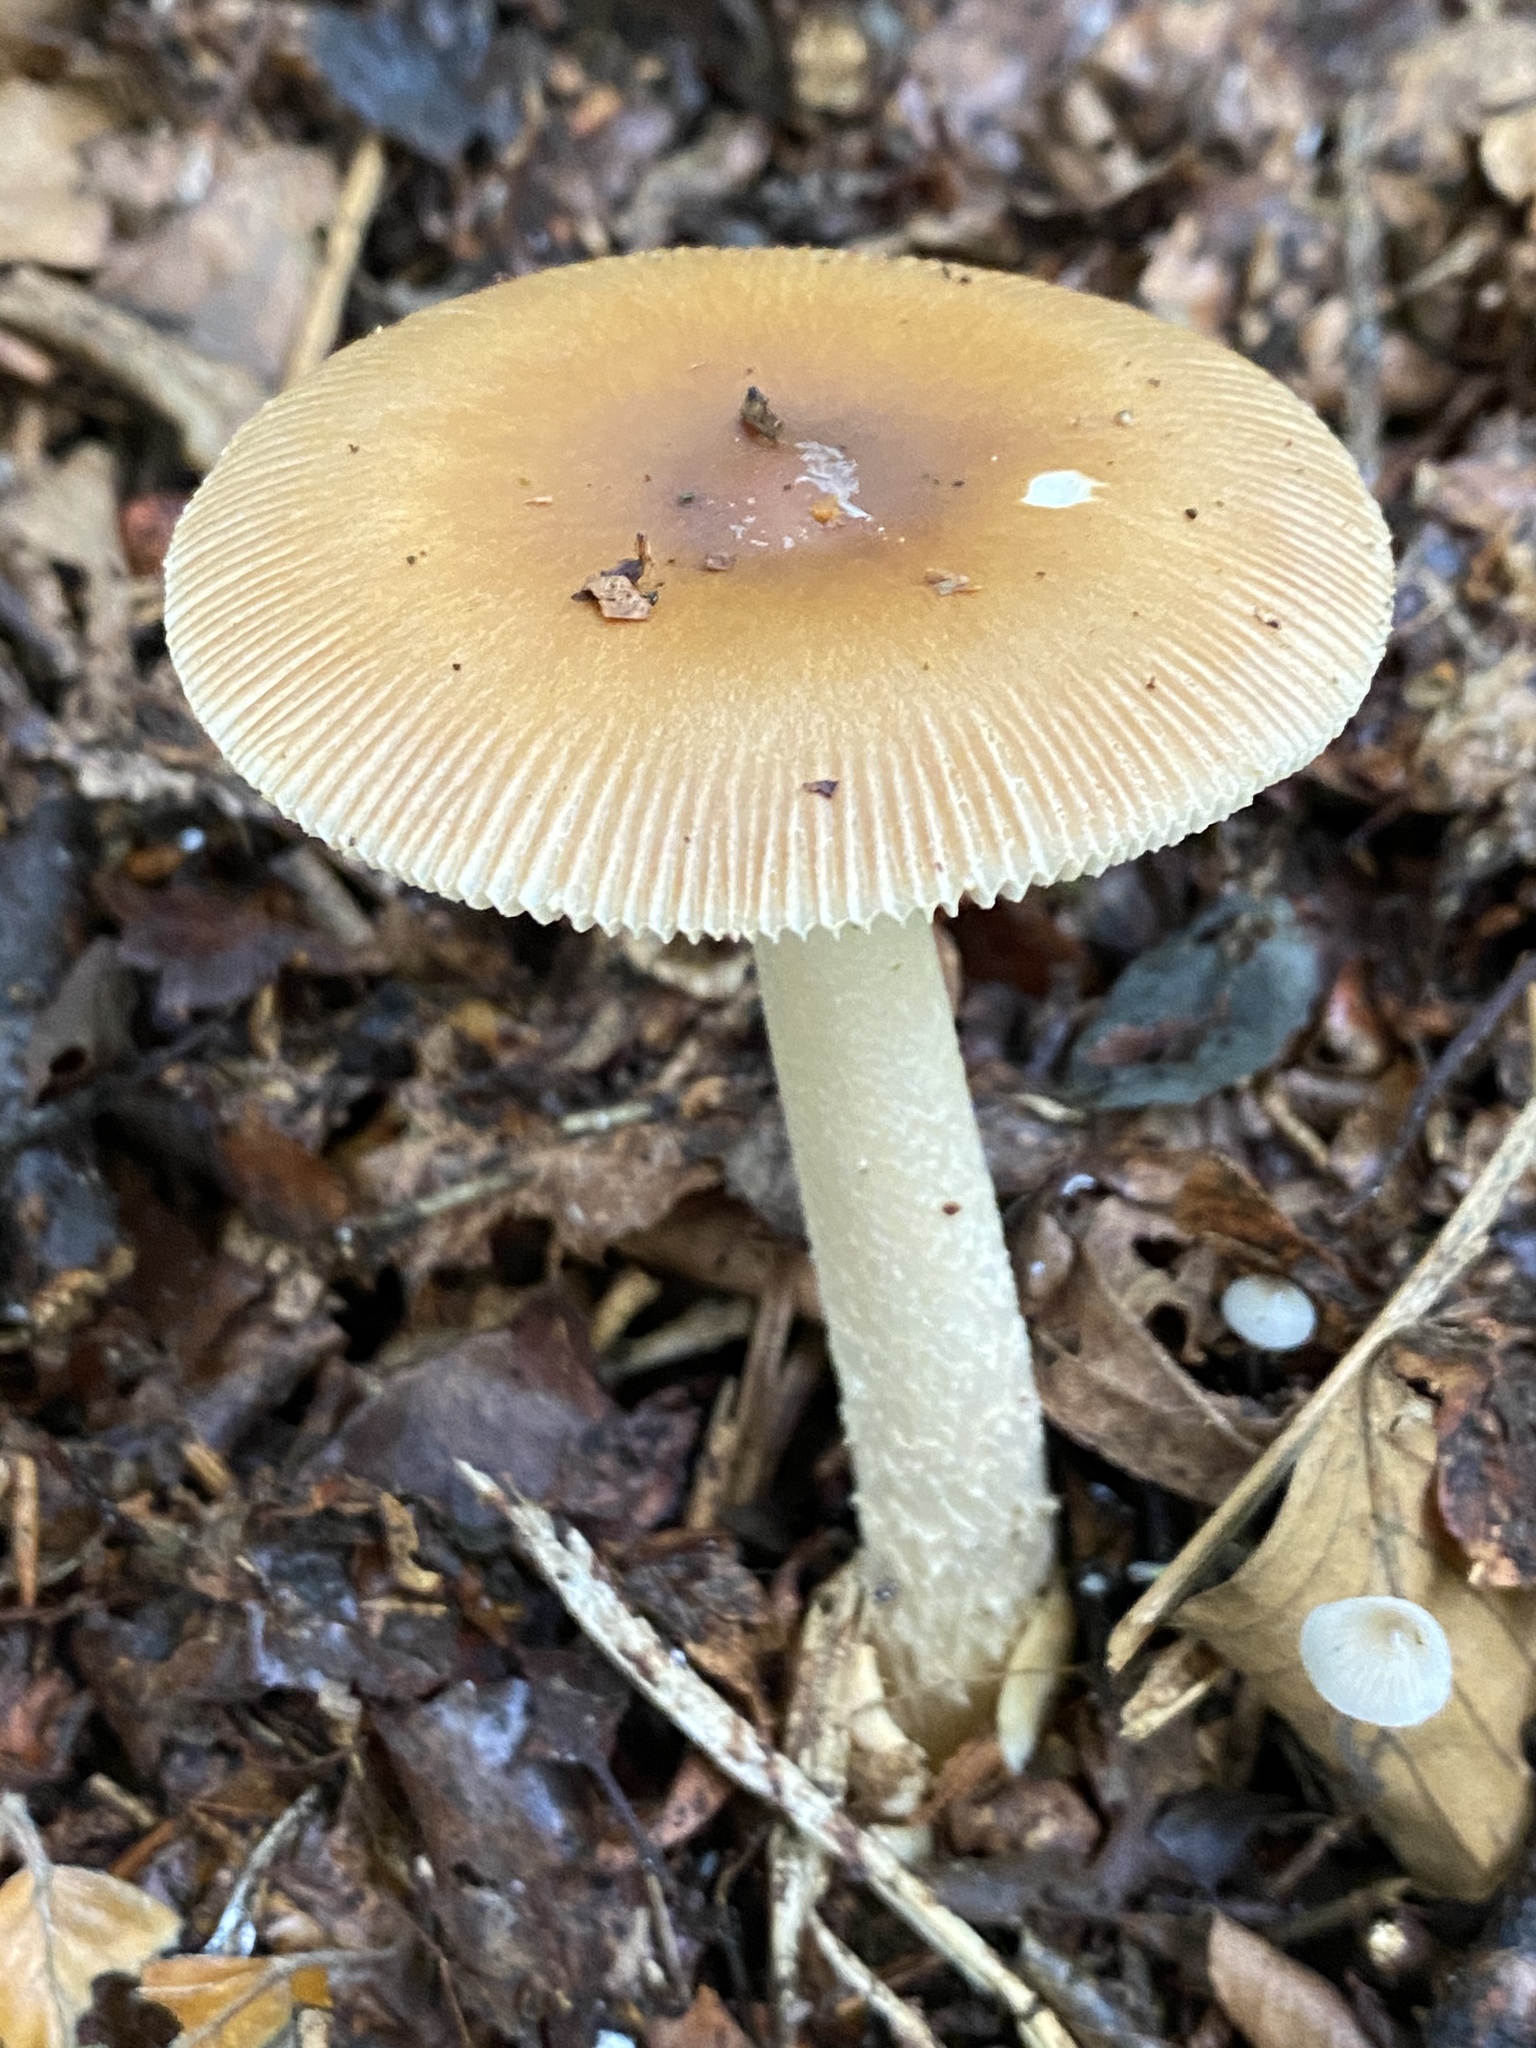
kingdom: Fungi
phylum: Basidiomycota
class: Agaricomycetes
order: Agaricales
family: Amanitaceae
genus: Amanita
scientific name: Amanita fulva
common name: Tawny grisette
